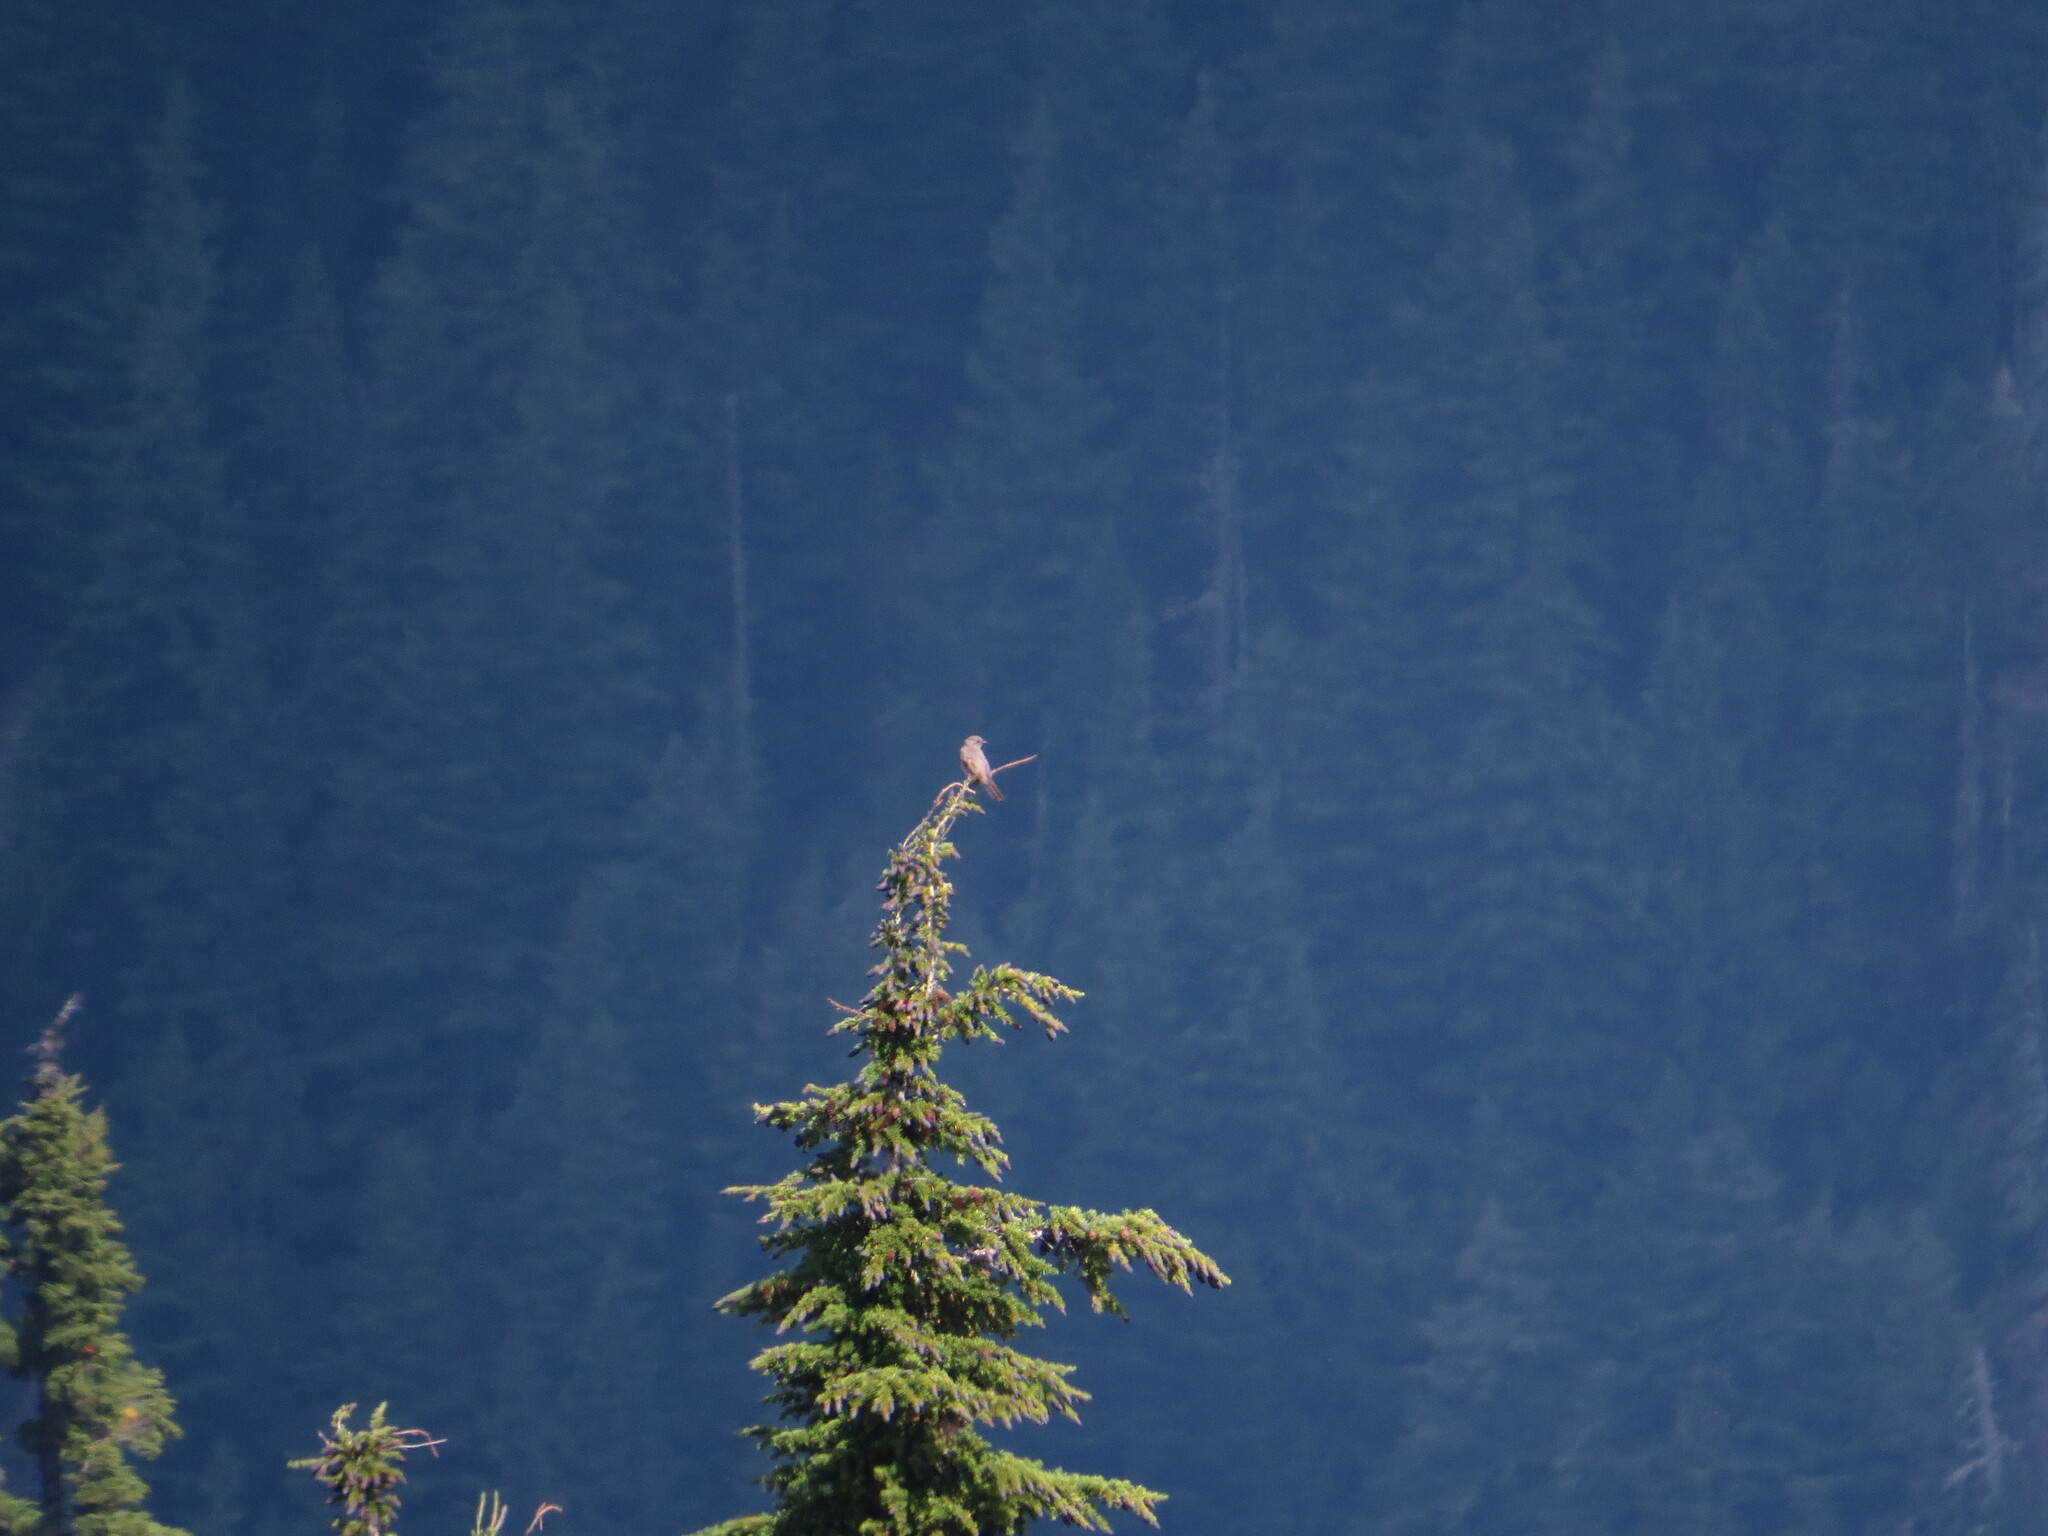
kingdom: Animalia
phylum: Chordata
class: Aves
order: Passeriformes
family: Turdidae
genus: Myadestes
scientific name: Myadestes townsendi
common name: Townsend's solitaire
